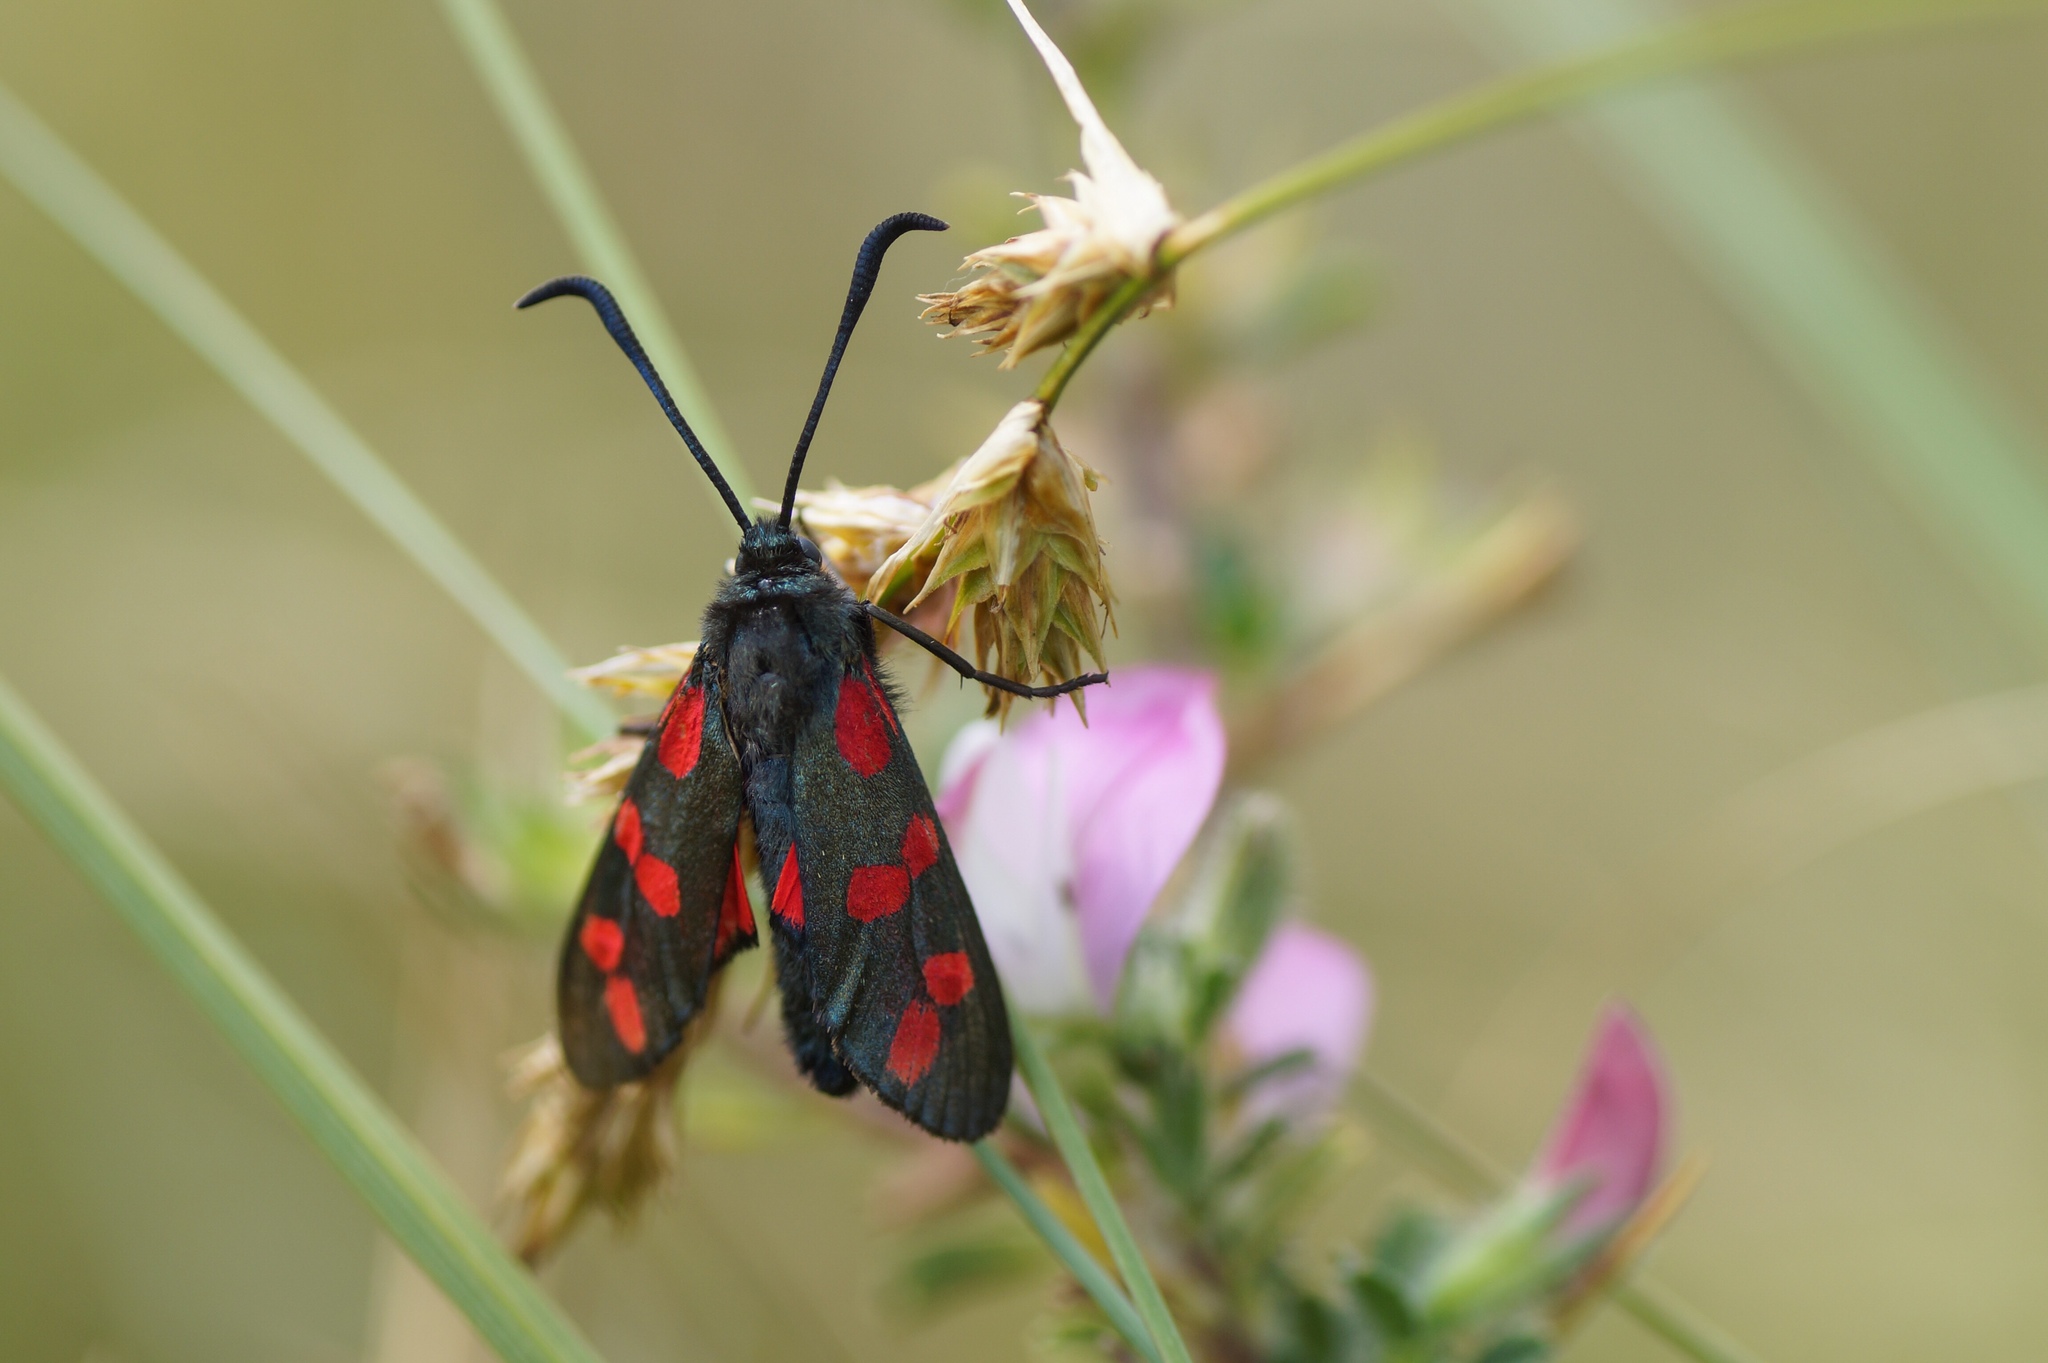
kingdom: Animalia
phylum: Arthropoda
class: Insecta
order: Lepidoptera
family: Zygaenidae
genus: Zygaena
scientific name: Zygaena filipendulae
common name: Six-spot burnet
